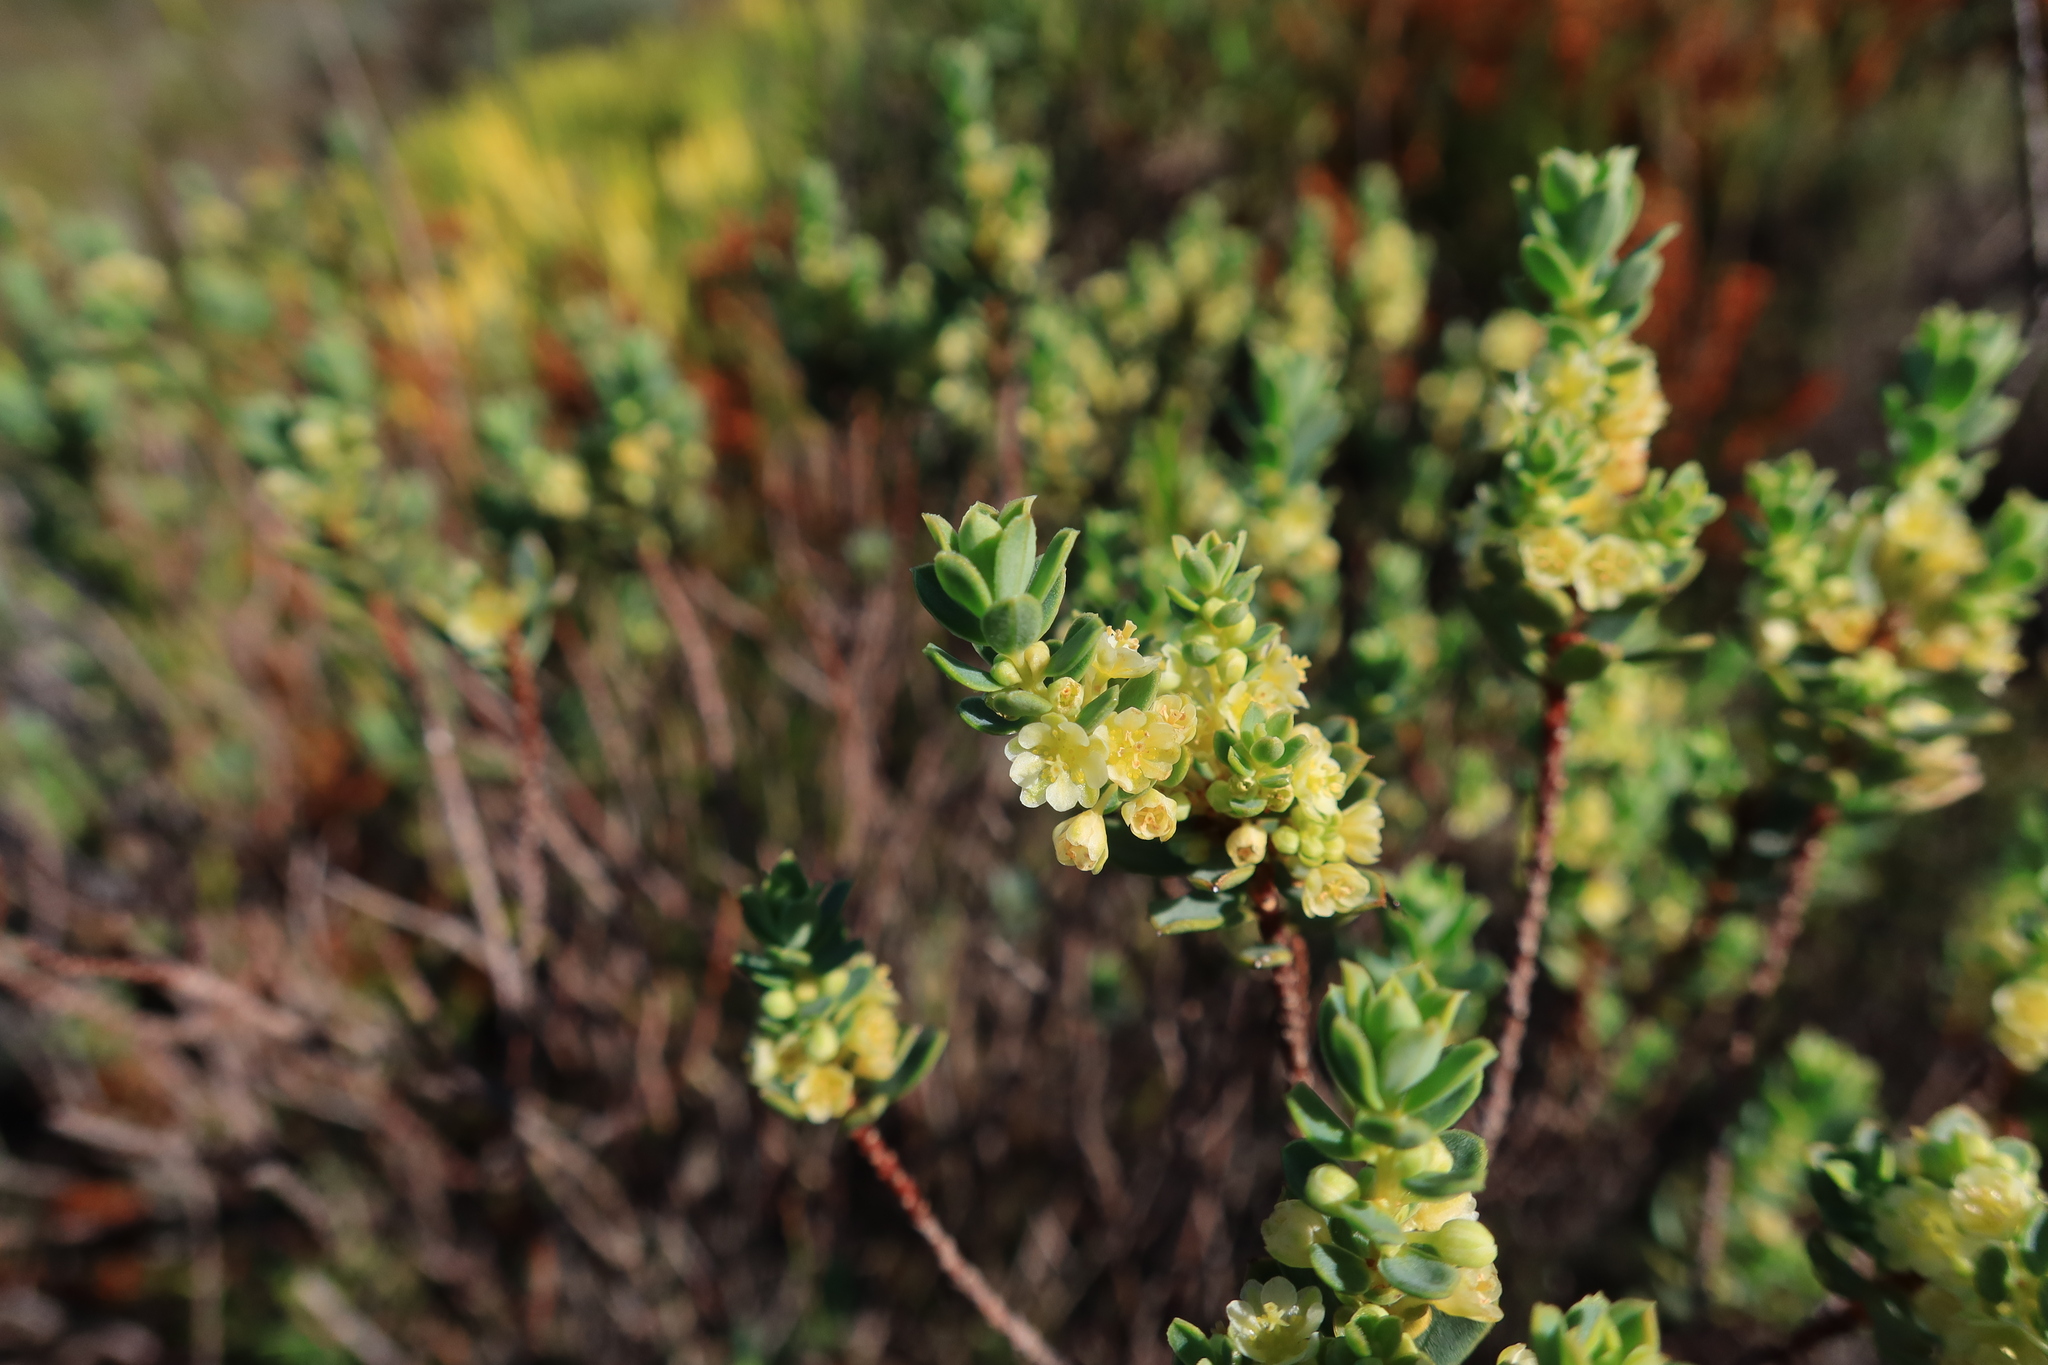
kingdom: Plantae
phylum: Tracheophyta
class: Magnoliopsida
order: Malpighiales
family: Peraceae
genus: Clutia
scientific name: Clutia alaternoides
